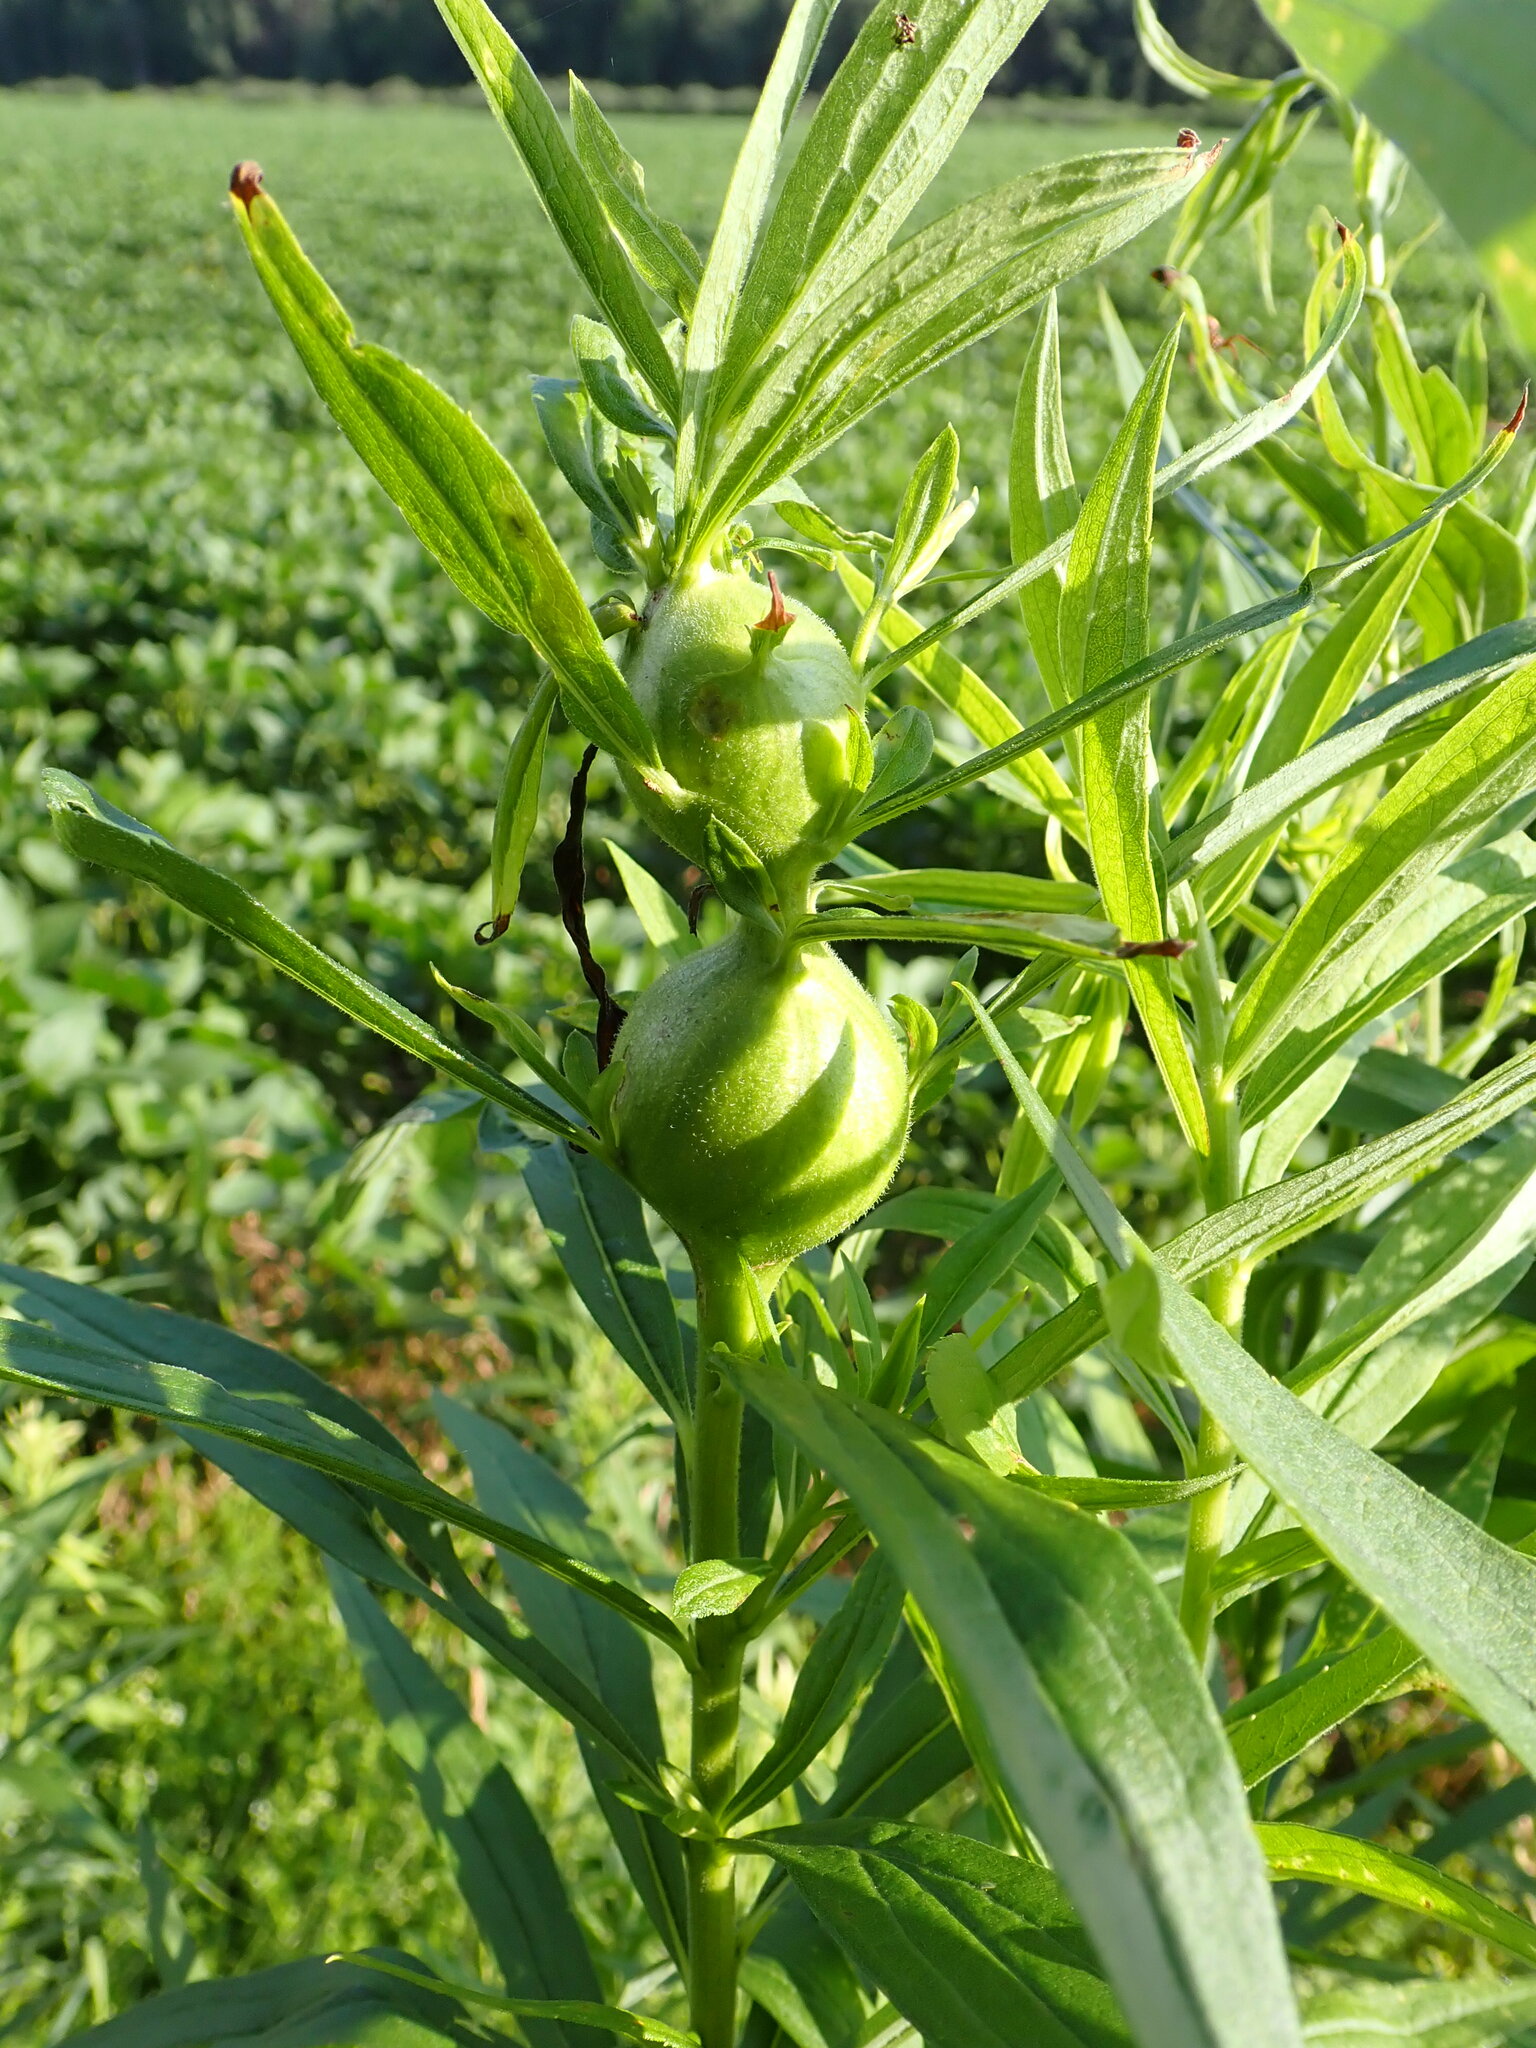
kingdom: Animalia
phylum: Arthropoda
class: Insecta
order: Diptera
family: Tephritidae
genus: Eurosta
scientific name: Eurosta solidaginis
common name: Goldenrod gall fly
